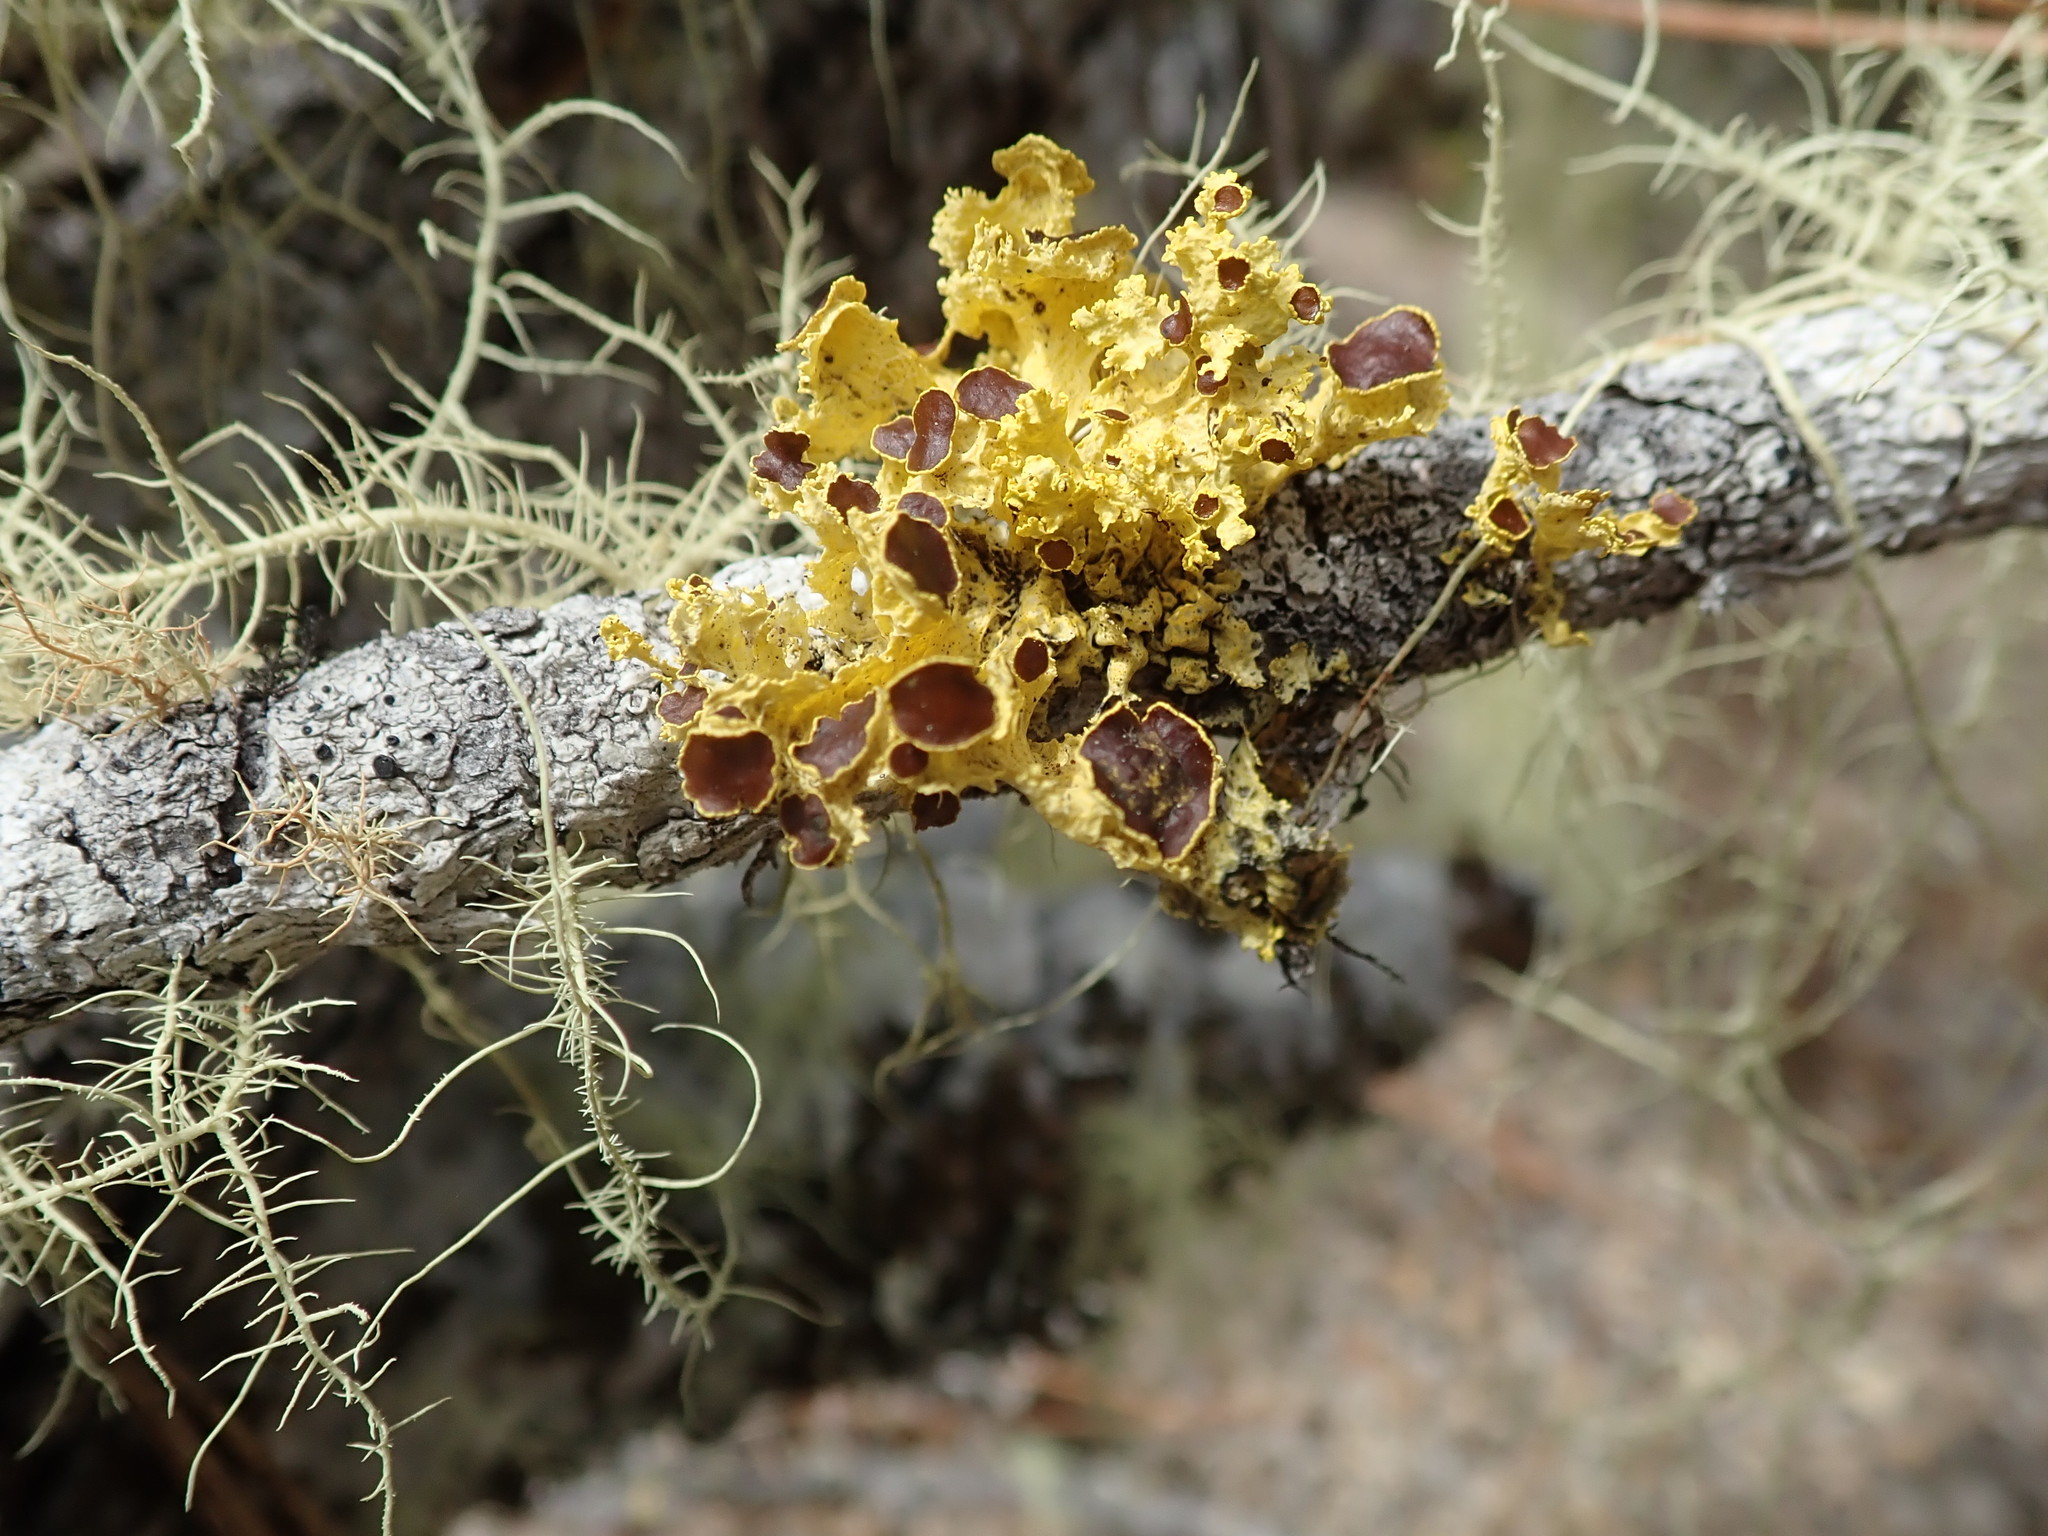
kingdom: Fungi
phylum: Ascomycota
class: Lecanoromycetes
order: Lecanorales
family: Parmeliaceae
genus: Vulpicida
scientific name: Vulpicida canadensis
